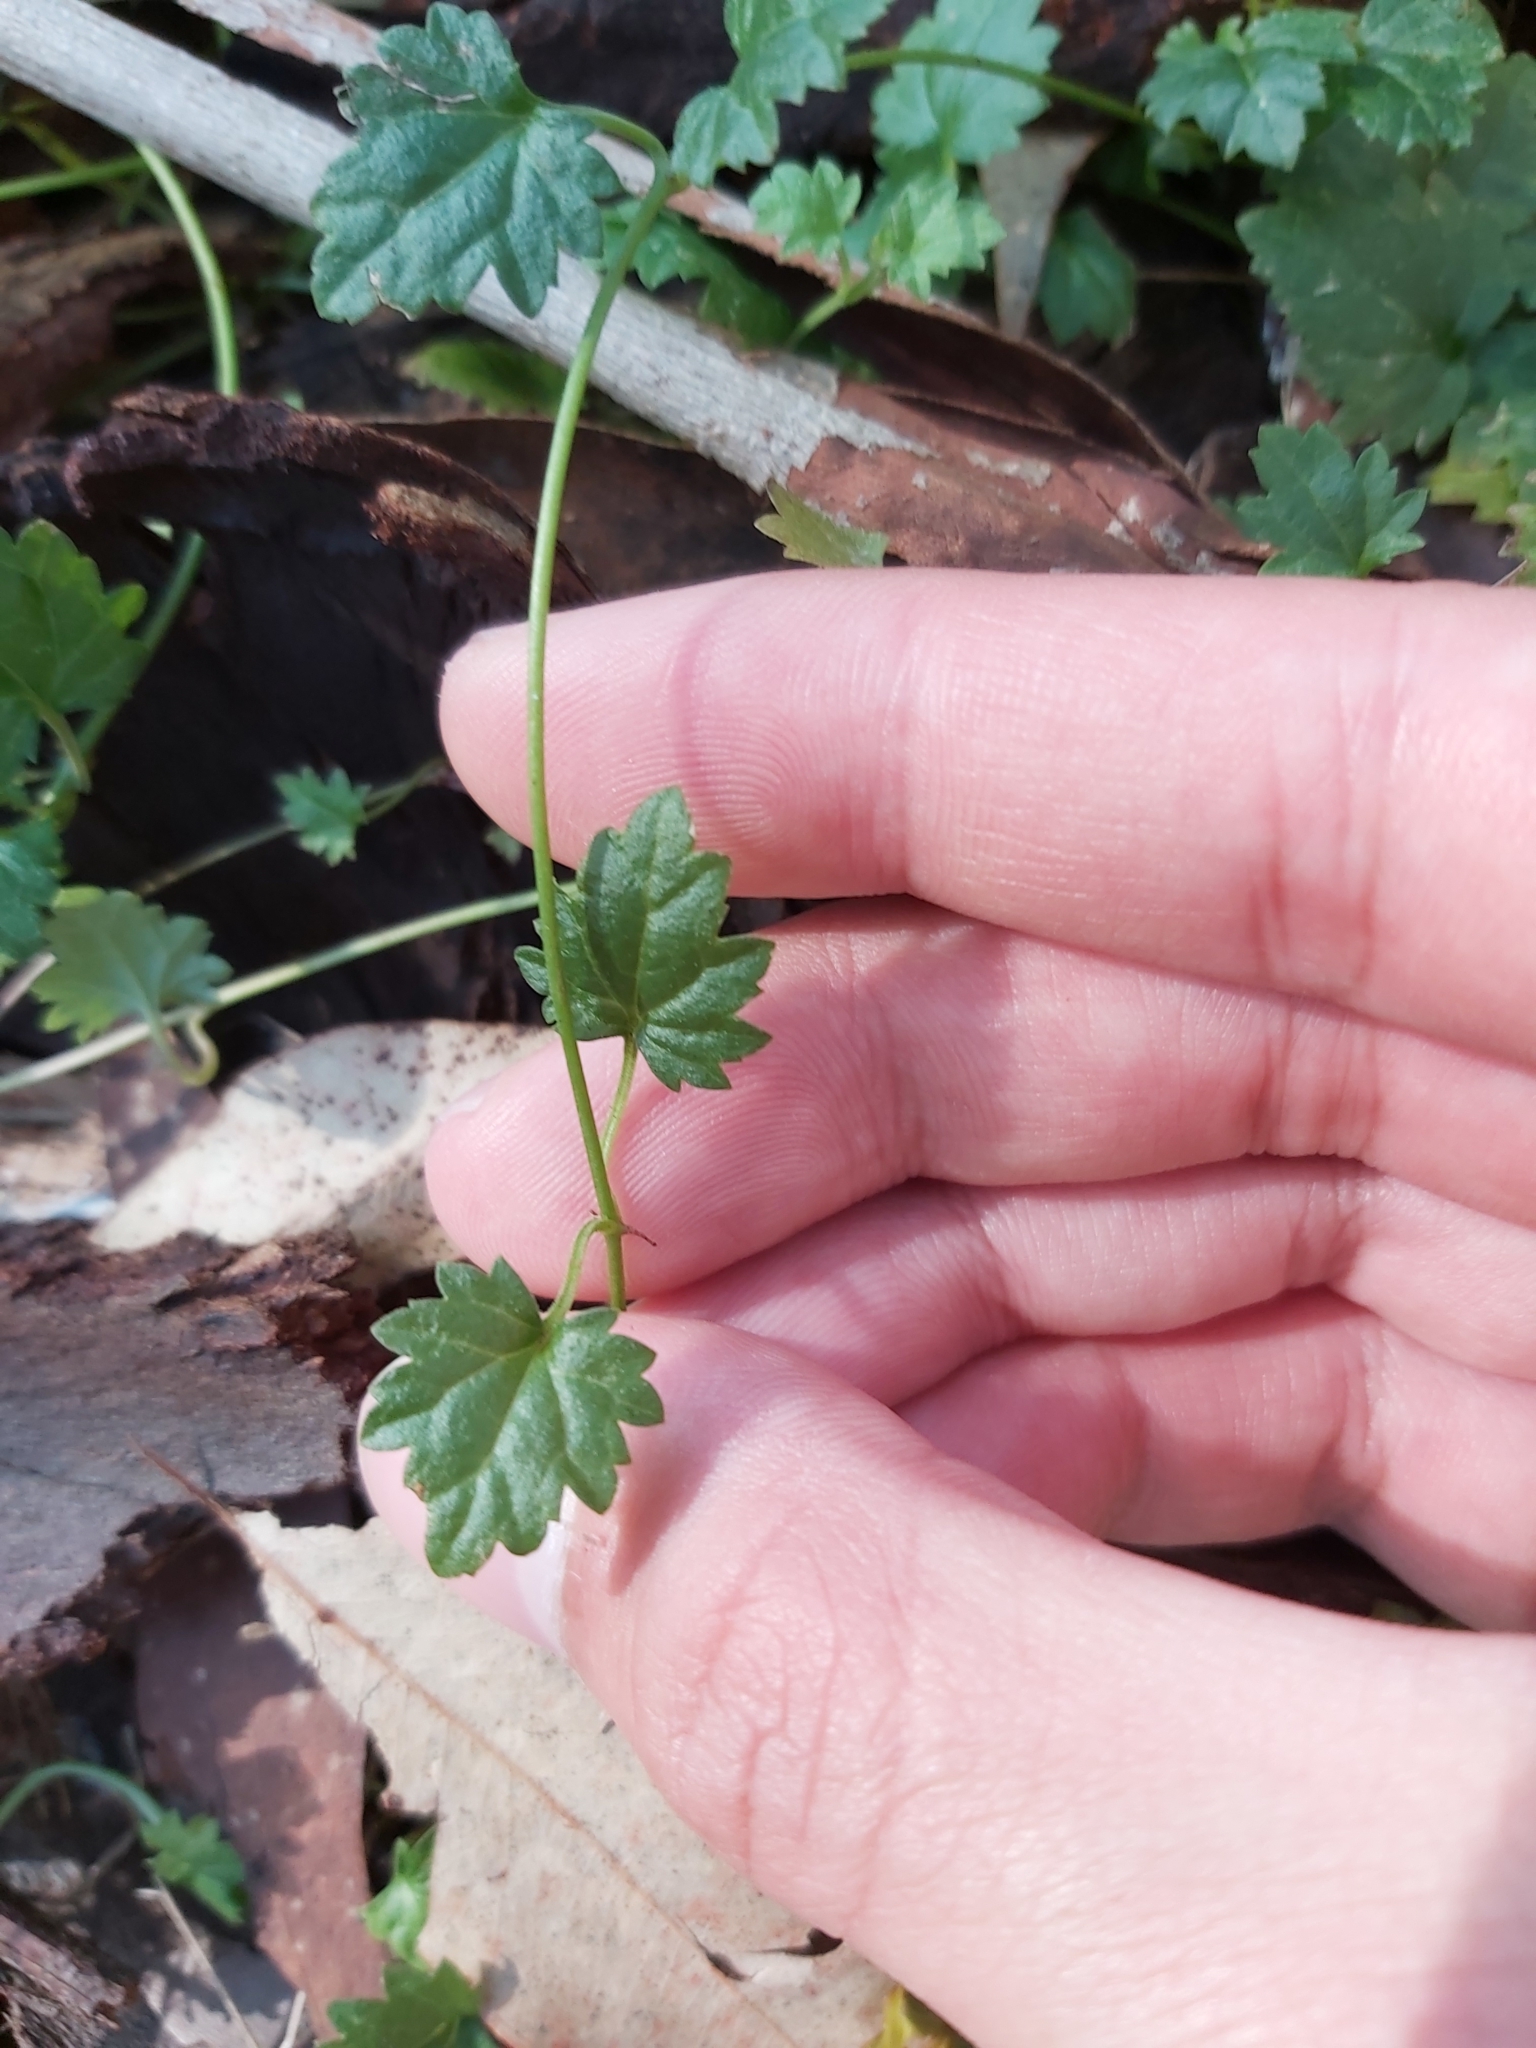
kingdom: Plantae
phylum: Tracheophyta
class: Magnoliopsida
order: Lamiales
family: Plantaginaceae
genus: Veronica
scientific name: Veronica plebeia
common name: Speedwell
